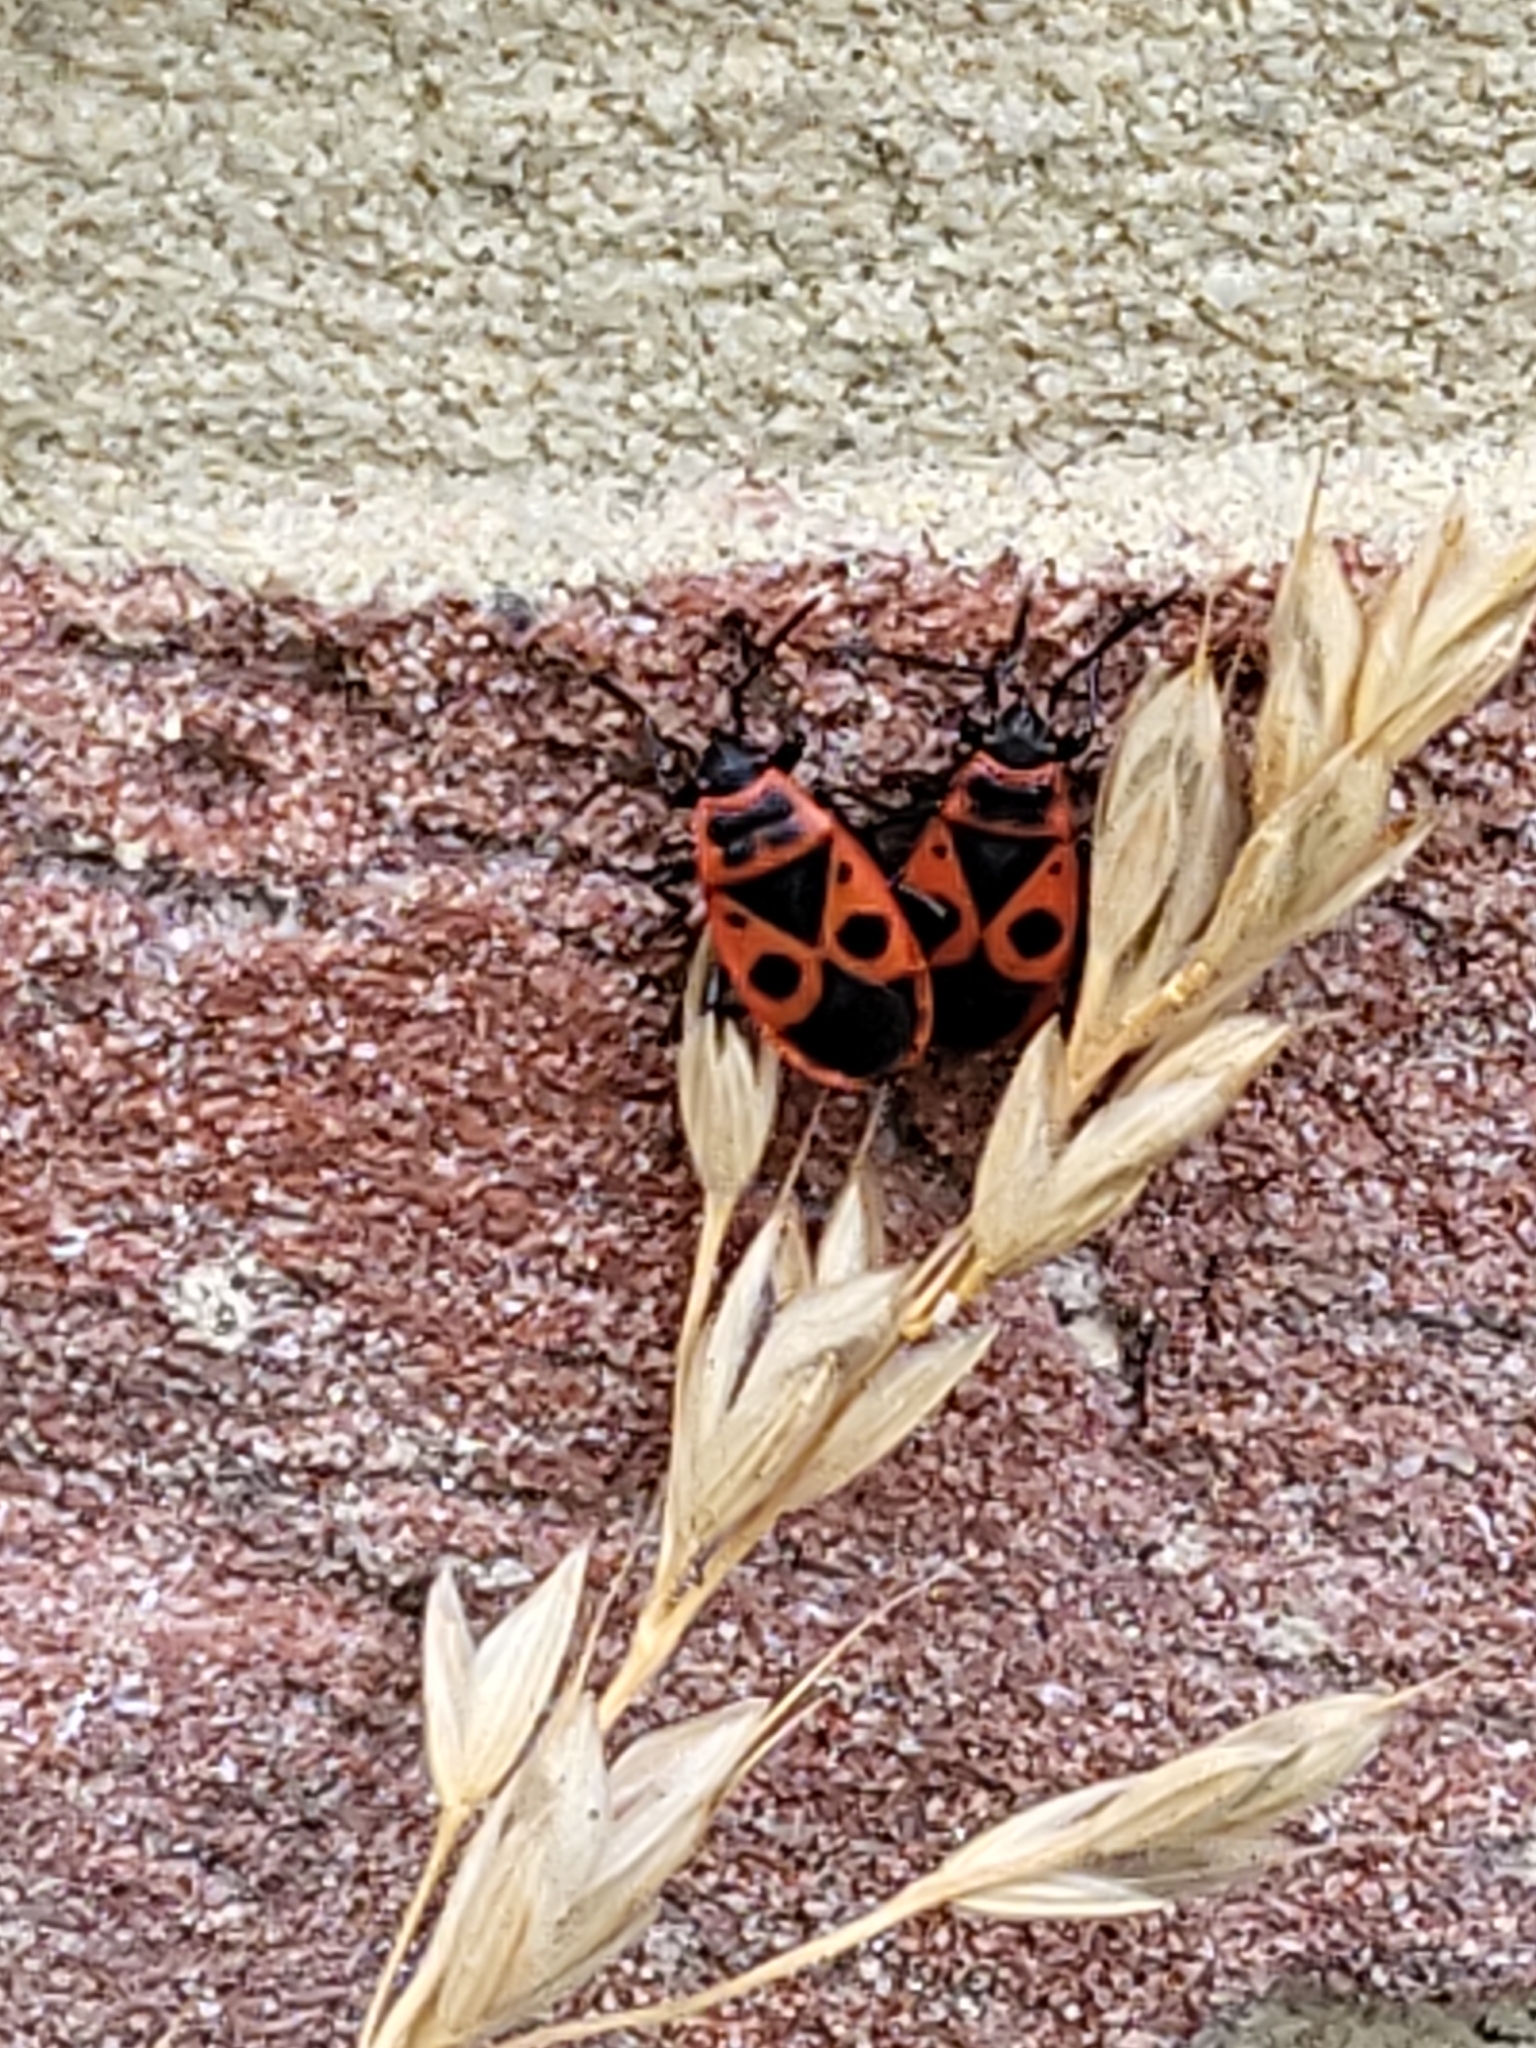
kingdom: Animalia
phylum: Arthropoda
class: Insecta
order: Hemiptera
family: Pyrrhocoridae
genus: Pyrrhocoris
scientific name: Pyrrhocoris apterus
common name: Firebug
